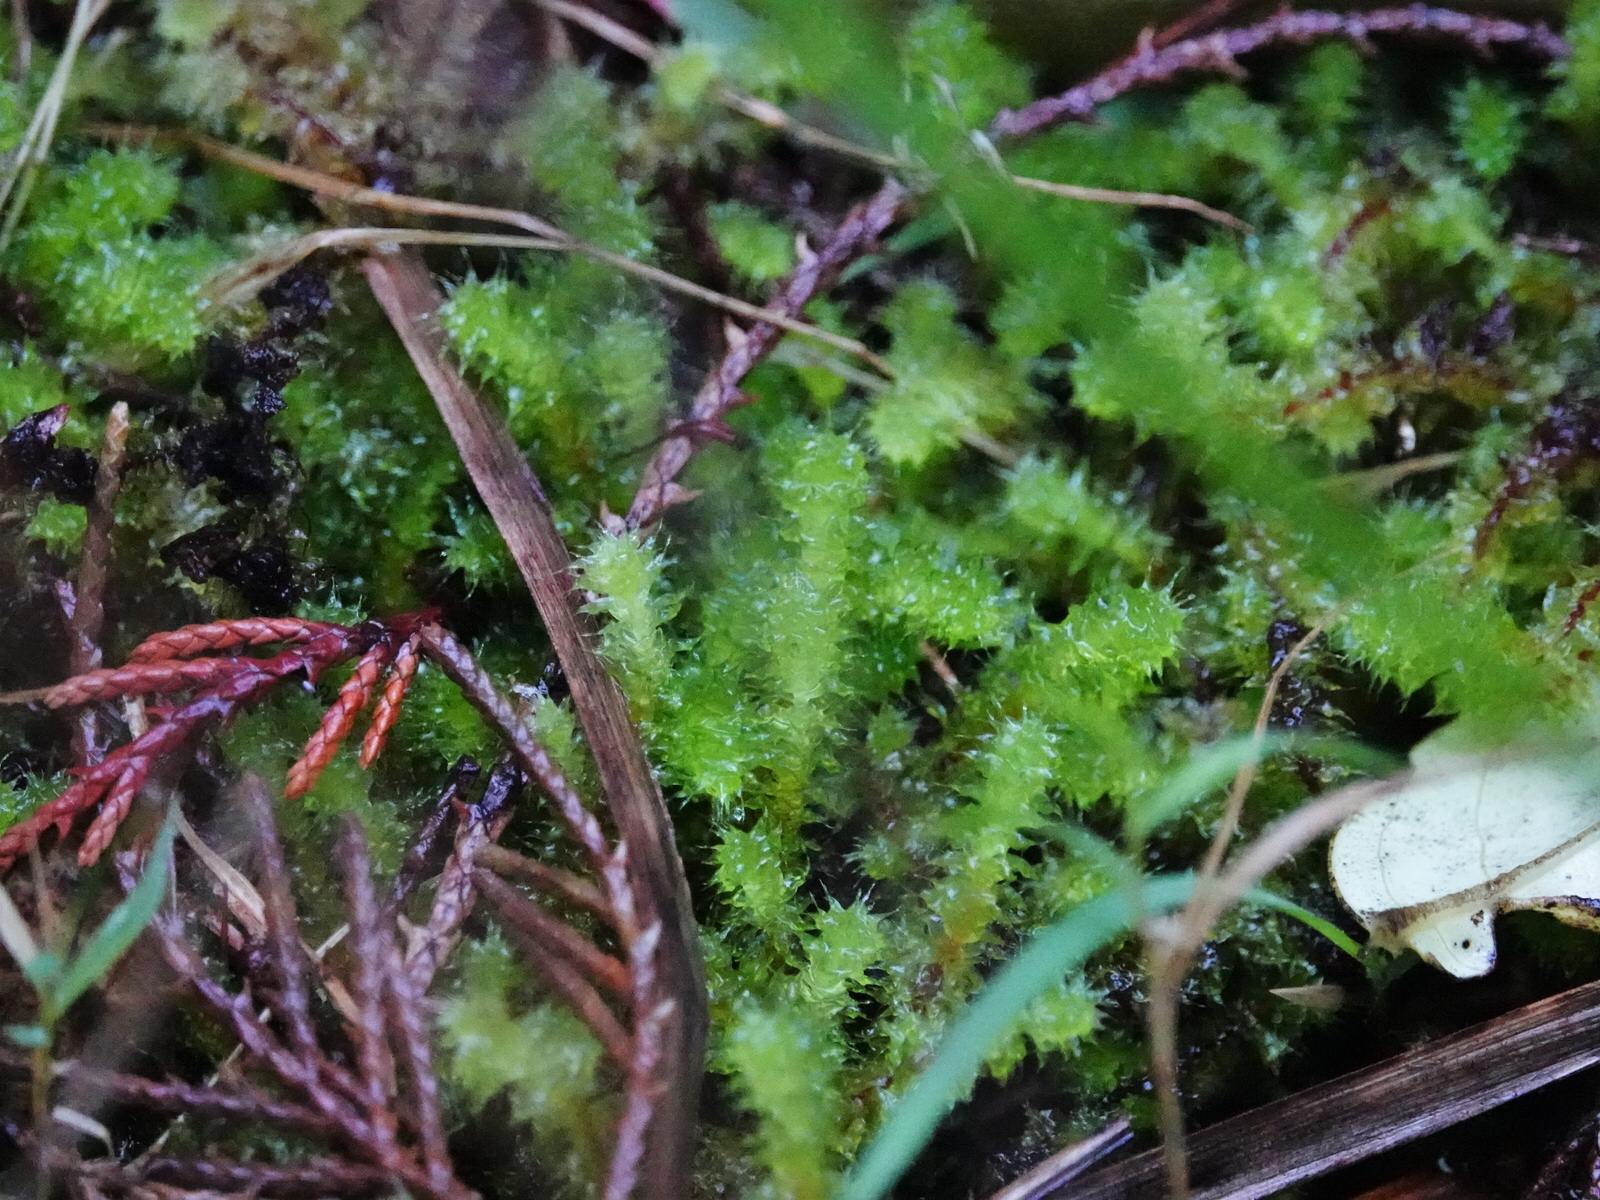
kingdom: Plantae
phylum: Bryophyta
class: Bryopsida
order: Ptychomniales
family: Ptychomniaceae
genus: Ptychomnion
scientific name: Ptychomnion aciculare
